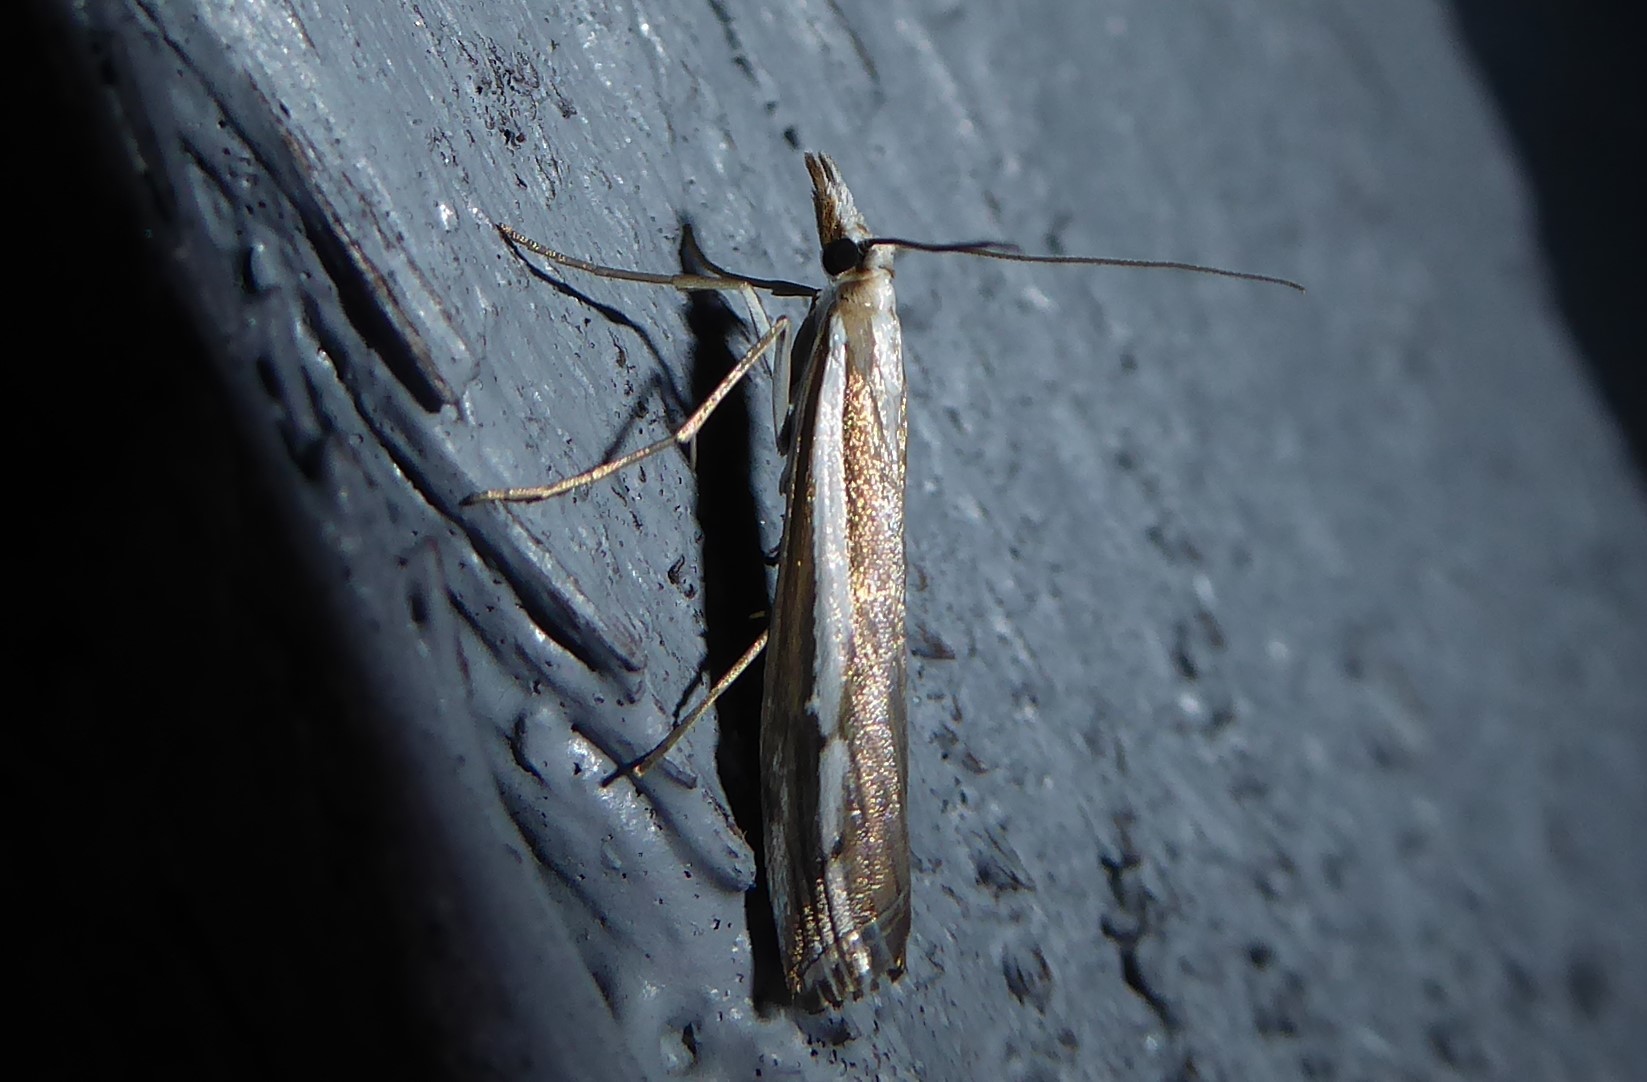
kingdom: Animalia
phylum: Arthropoda
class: Insecta
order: Lepidoptera
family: Crambidae
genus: Orocrambus
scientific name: Orocrambus vittellus
